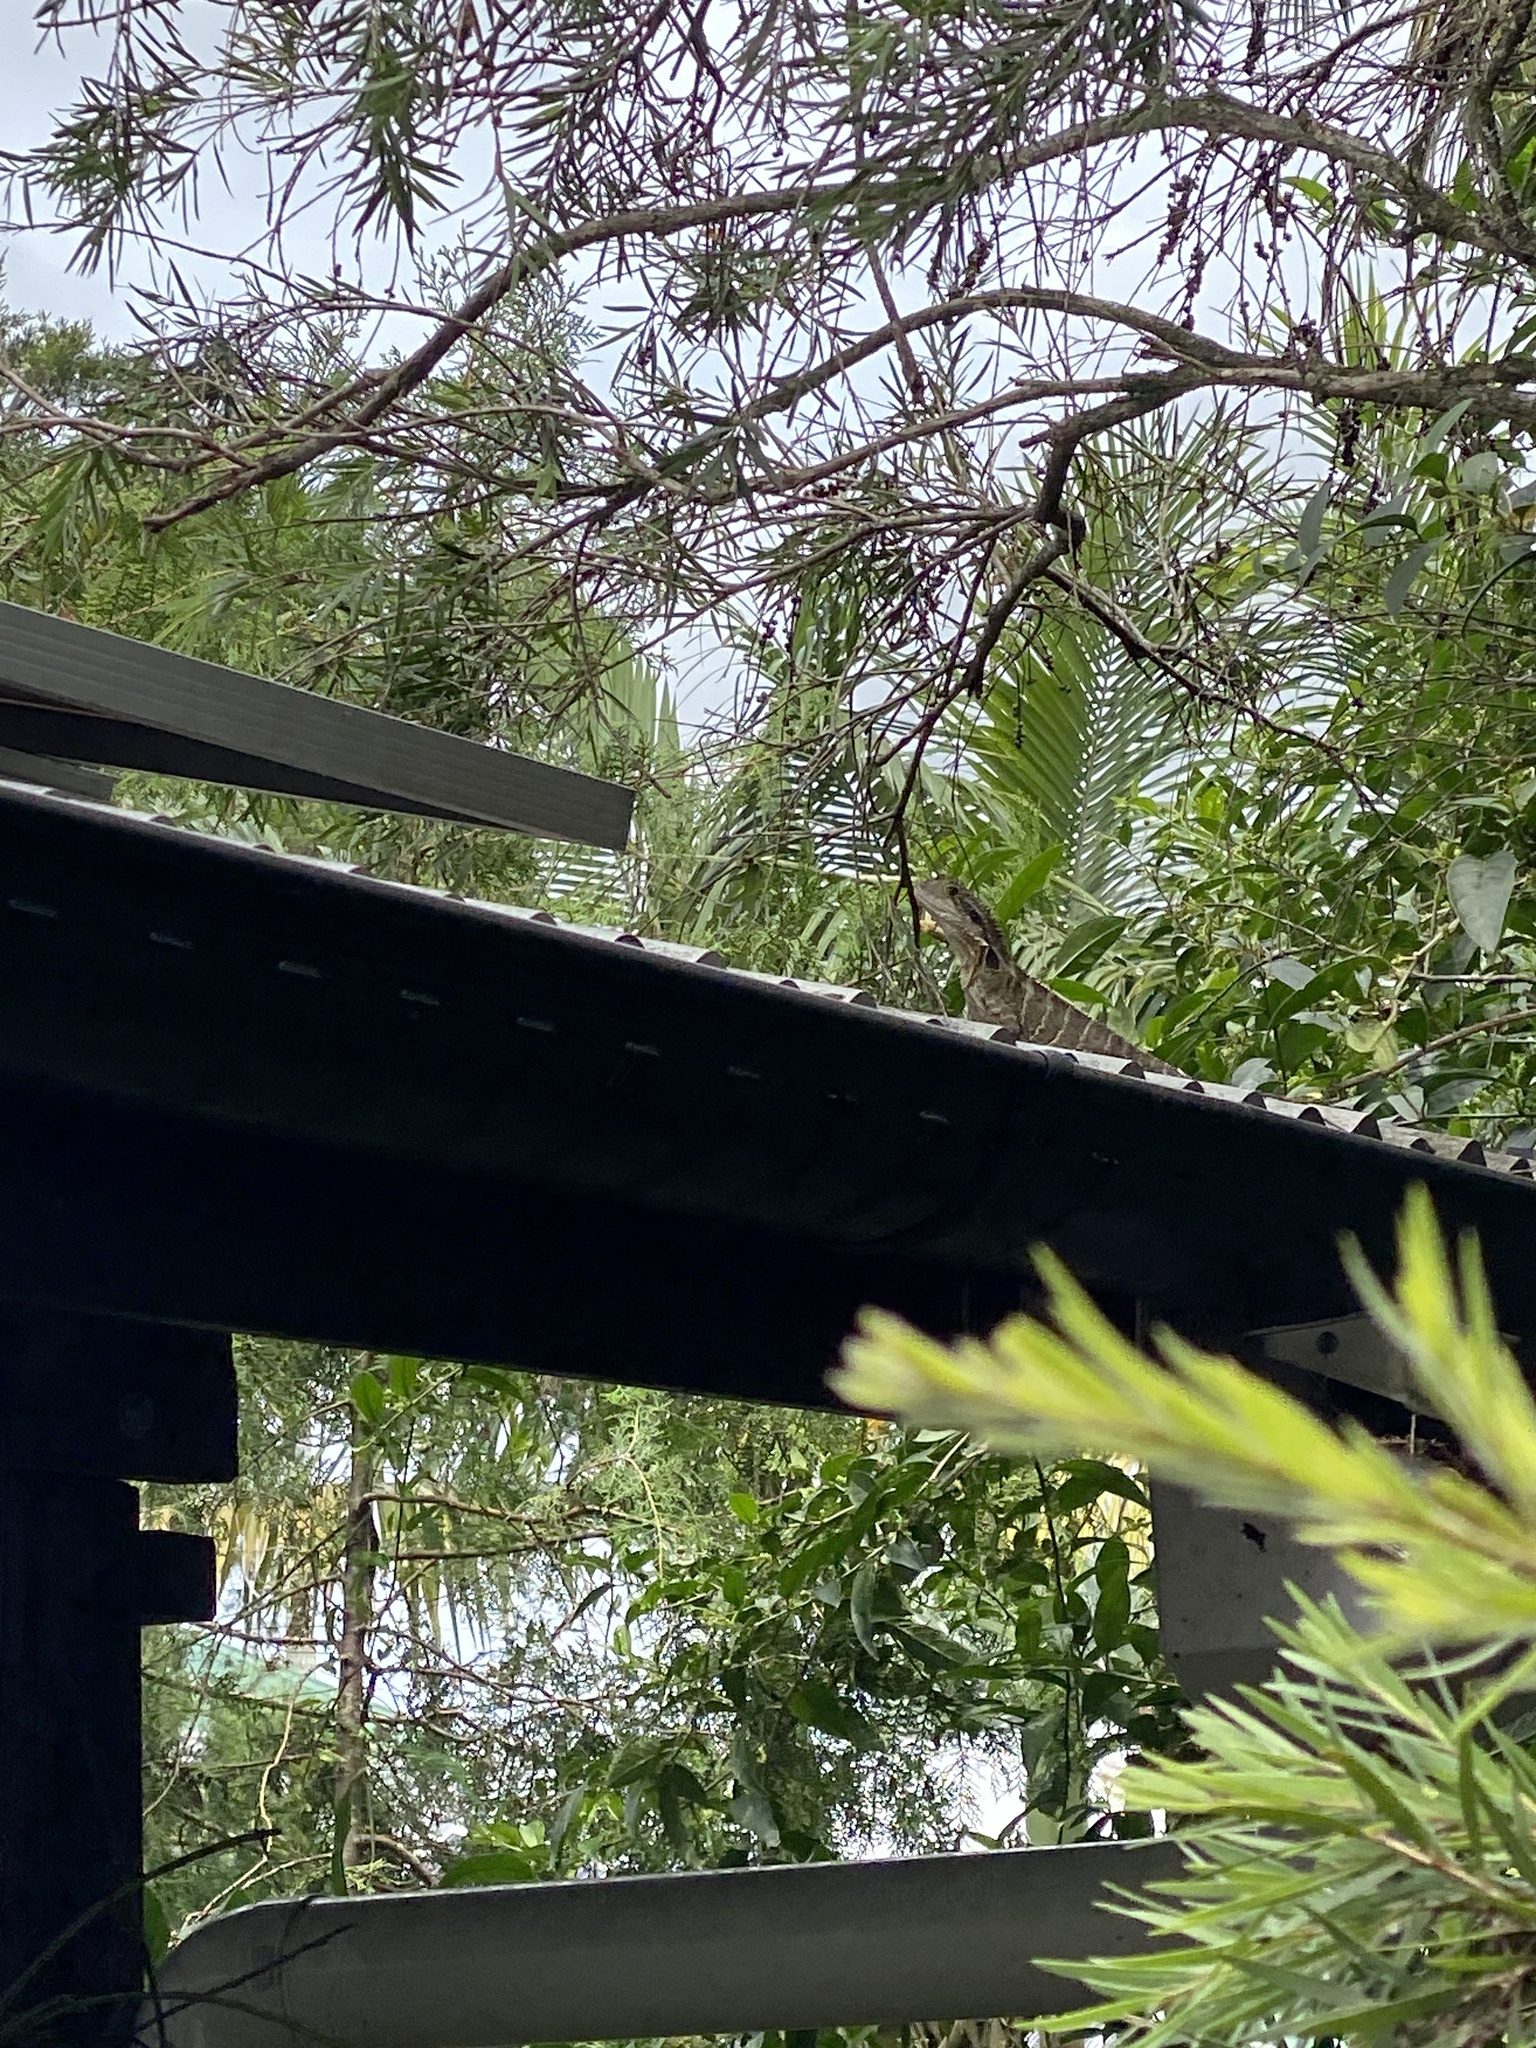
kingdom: Animalia
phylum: Chordata
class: Squamata
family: Agamidae
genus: Intellagama
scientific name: Intellagama lesueurii
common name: Eastern water dragon
